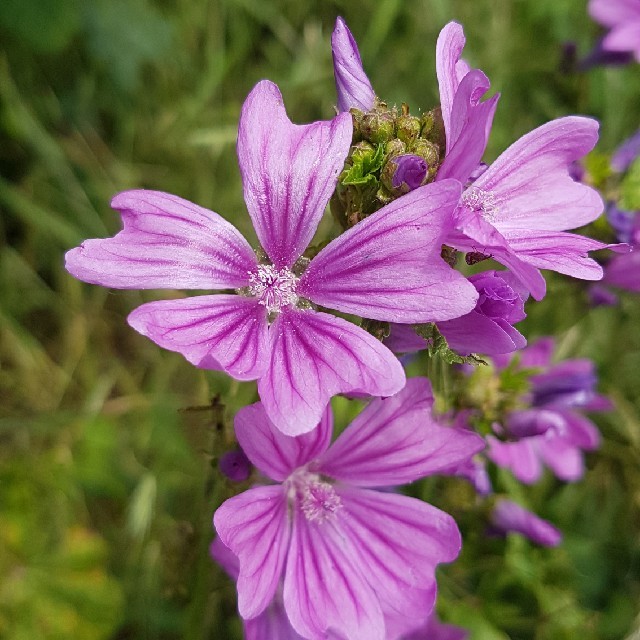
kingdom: Plantae
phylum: Tracheophyta
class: Magnoliopsida
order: Malvales
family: Malvaceae
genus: Malva
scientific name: Malva sylvestris
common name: Common mallow
